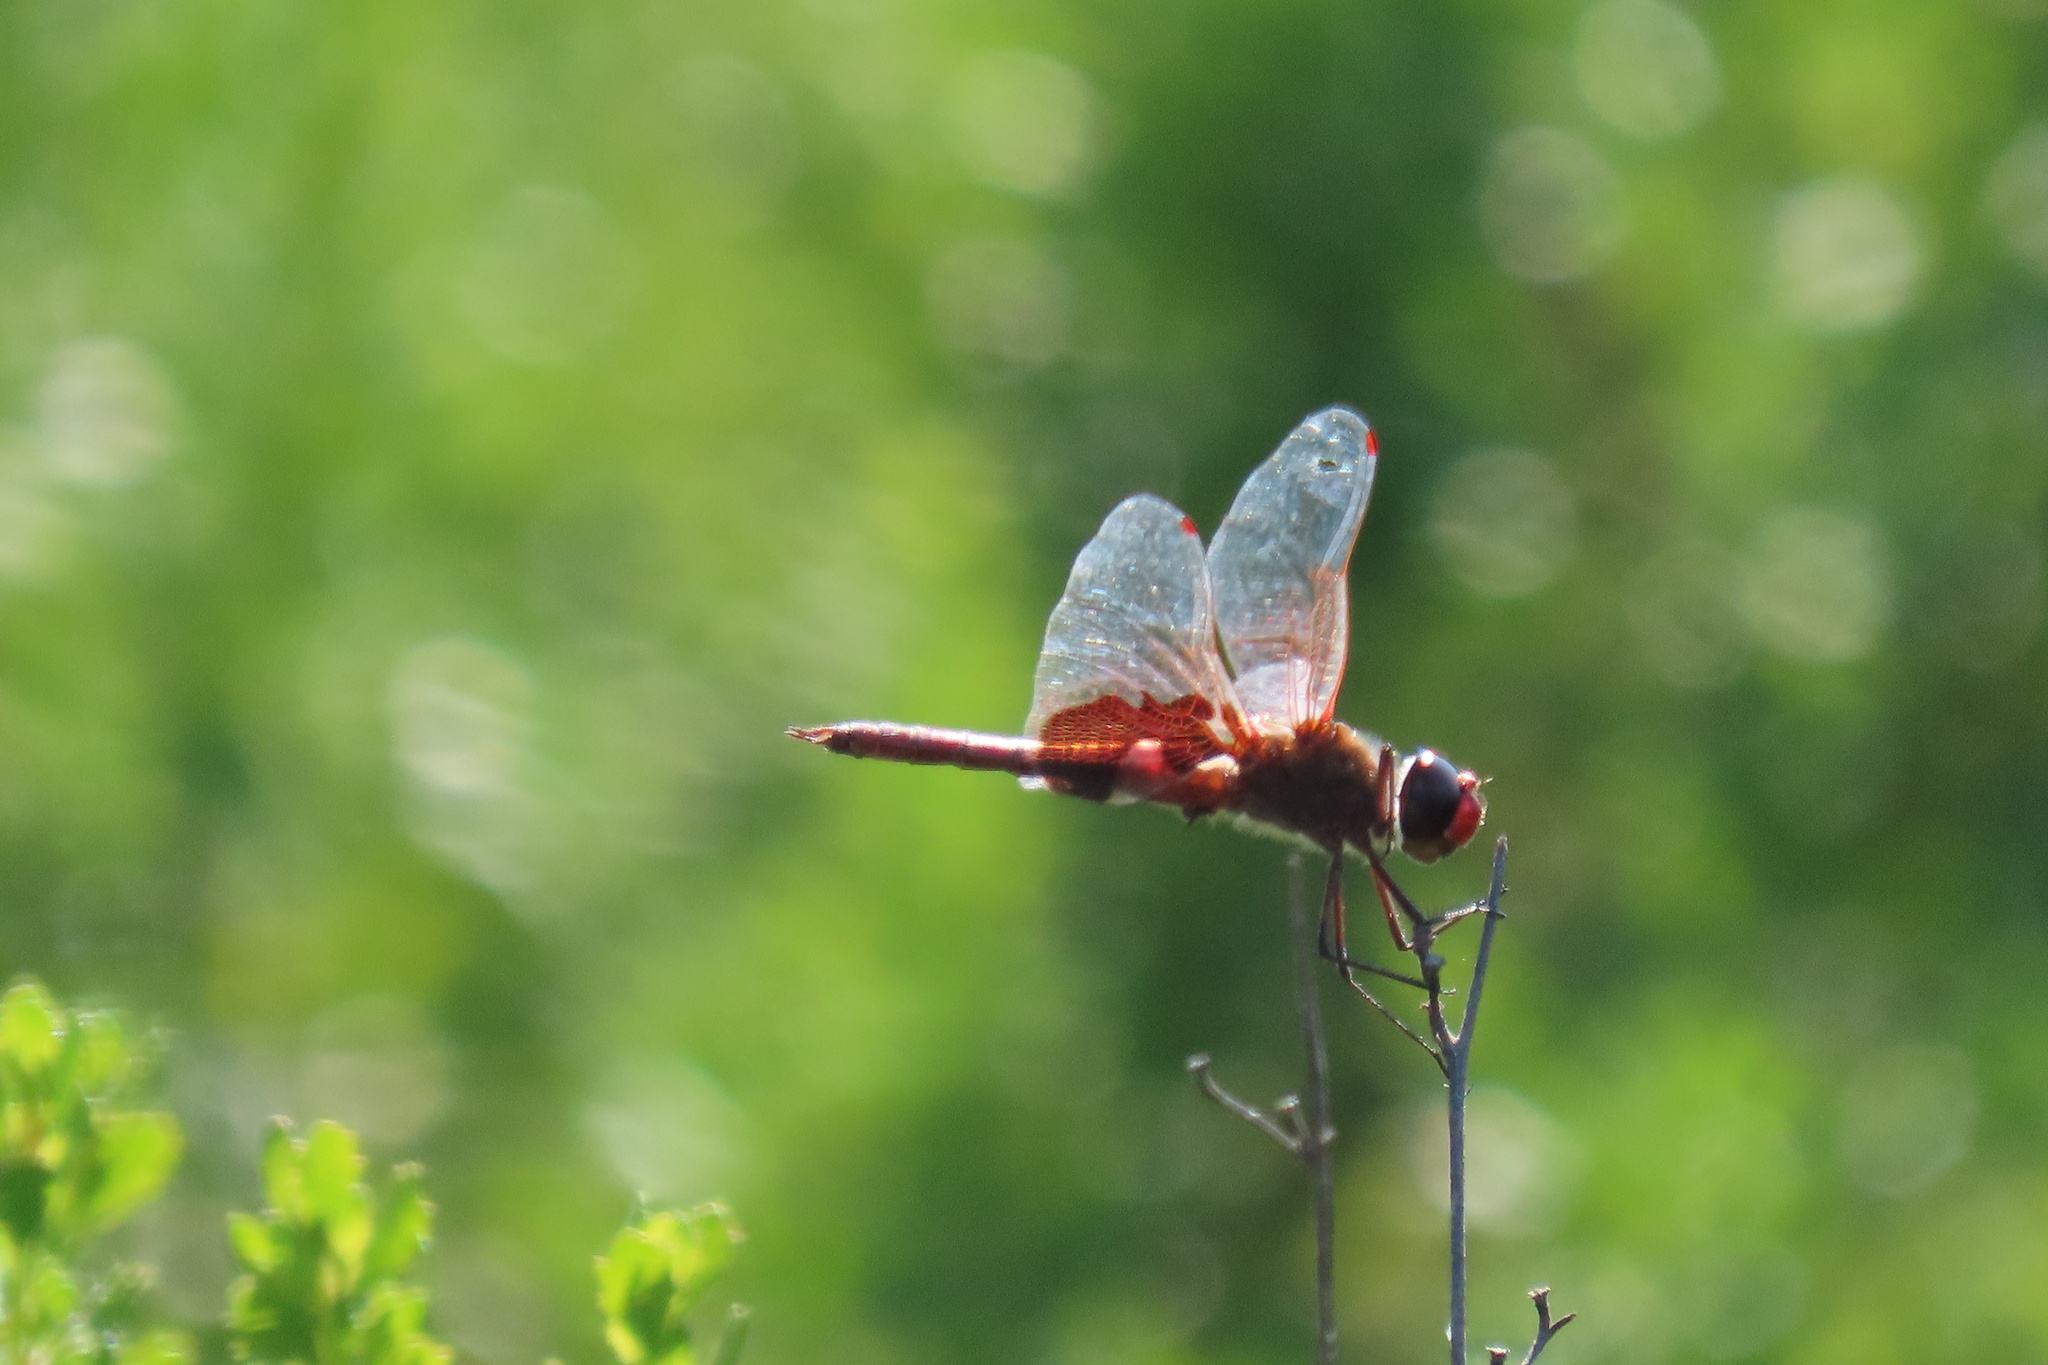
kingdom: Animalia
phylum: Arthropoda
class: Insecta
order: Odonata
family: Libellulidae
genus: Tramea
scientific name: Tramea onusta
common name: Red saddlebags
